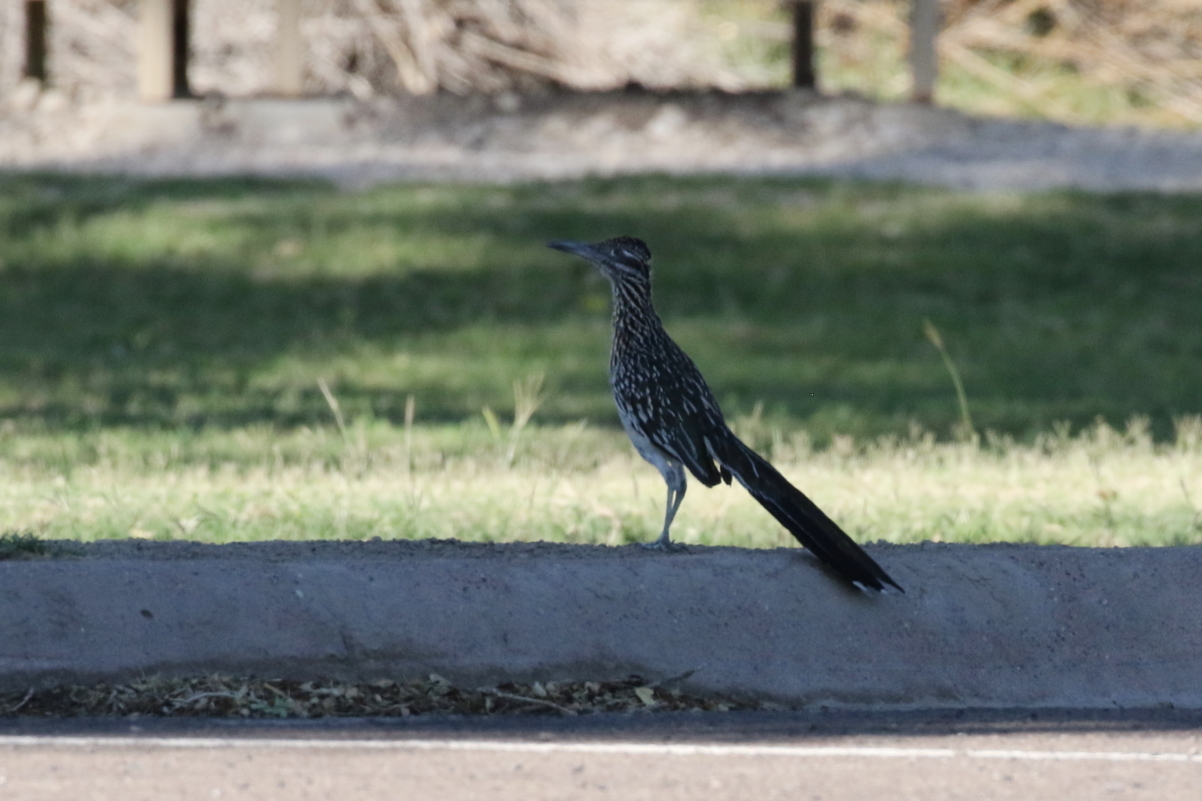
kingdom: Animalia
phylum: Chordata
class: Aves
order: Cuculiformes
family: Cuculidae
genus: Geococcyx
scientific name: Geococcyx californianus
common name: Greater roadrunner
